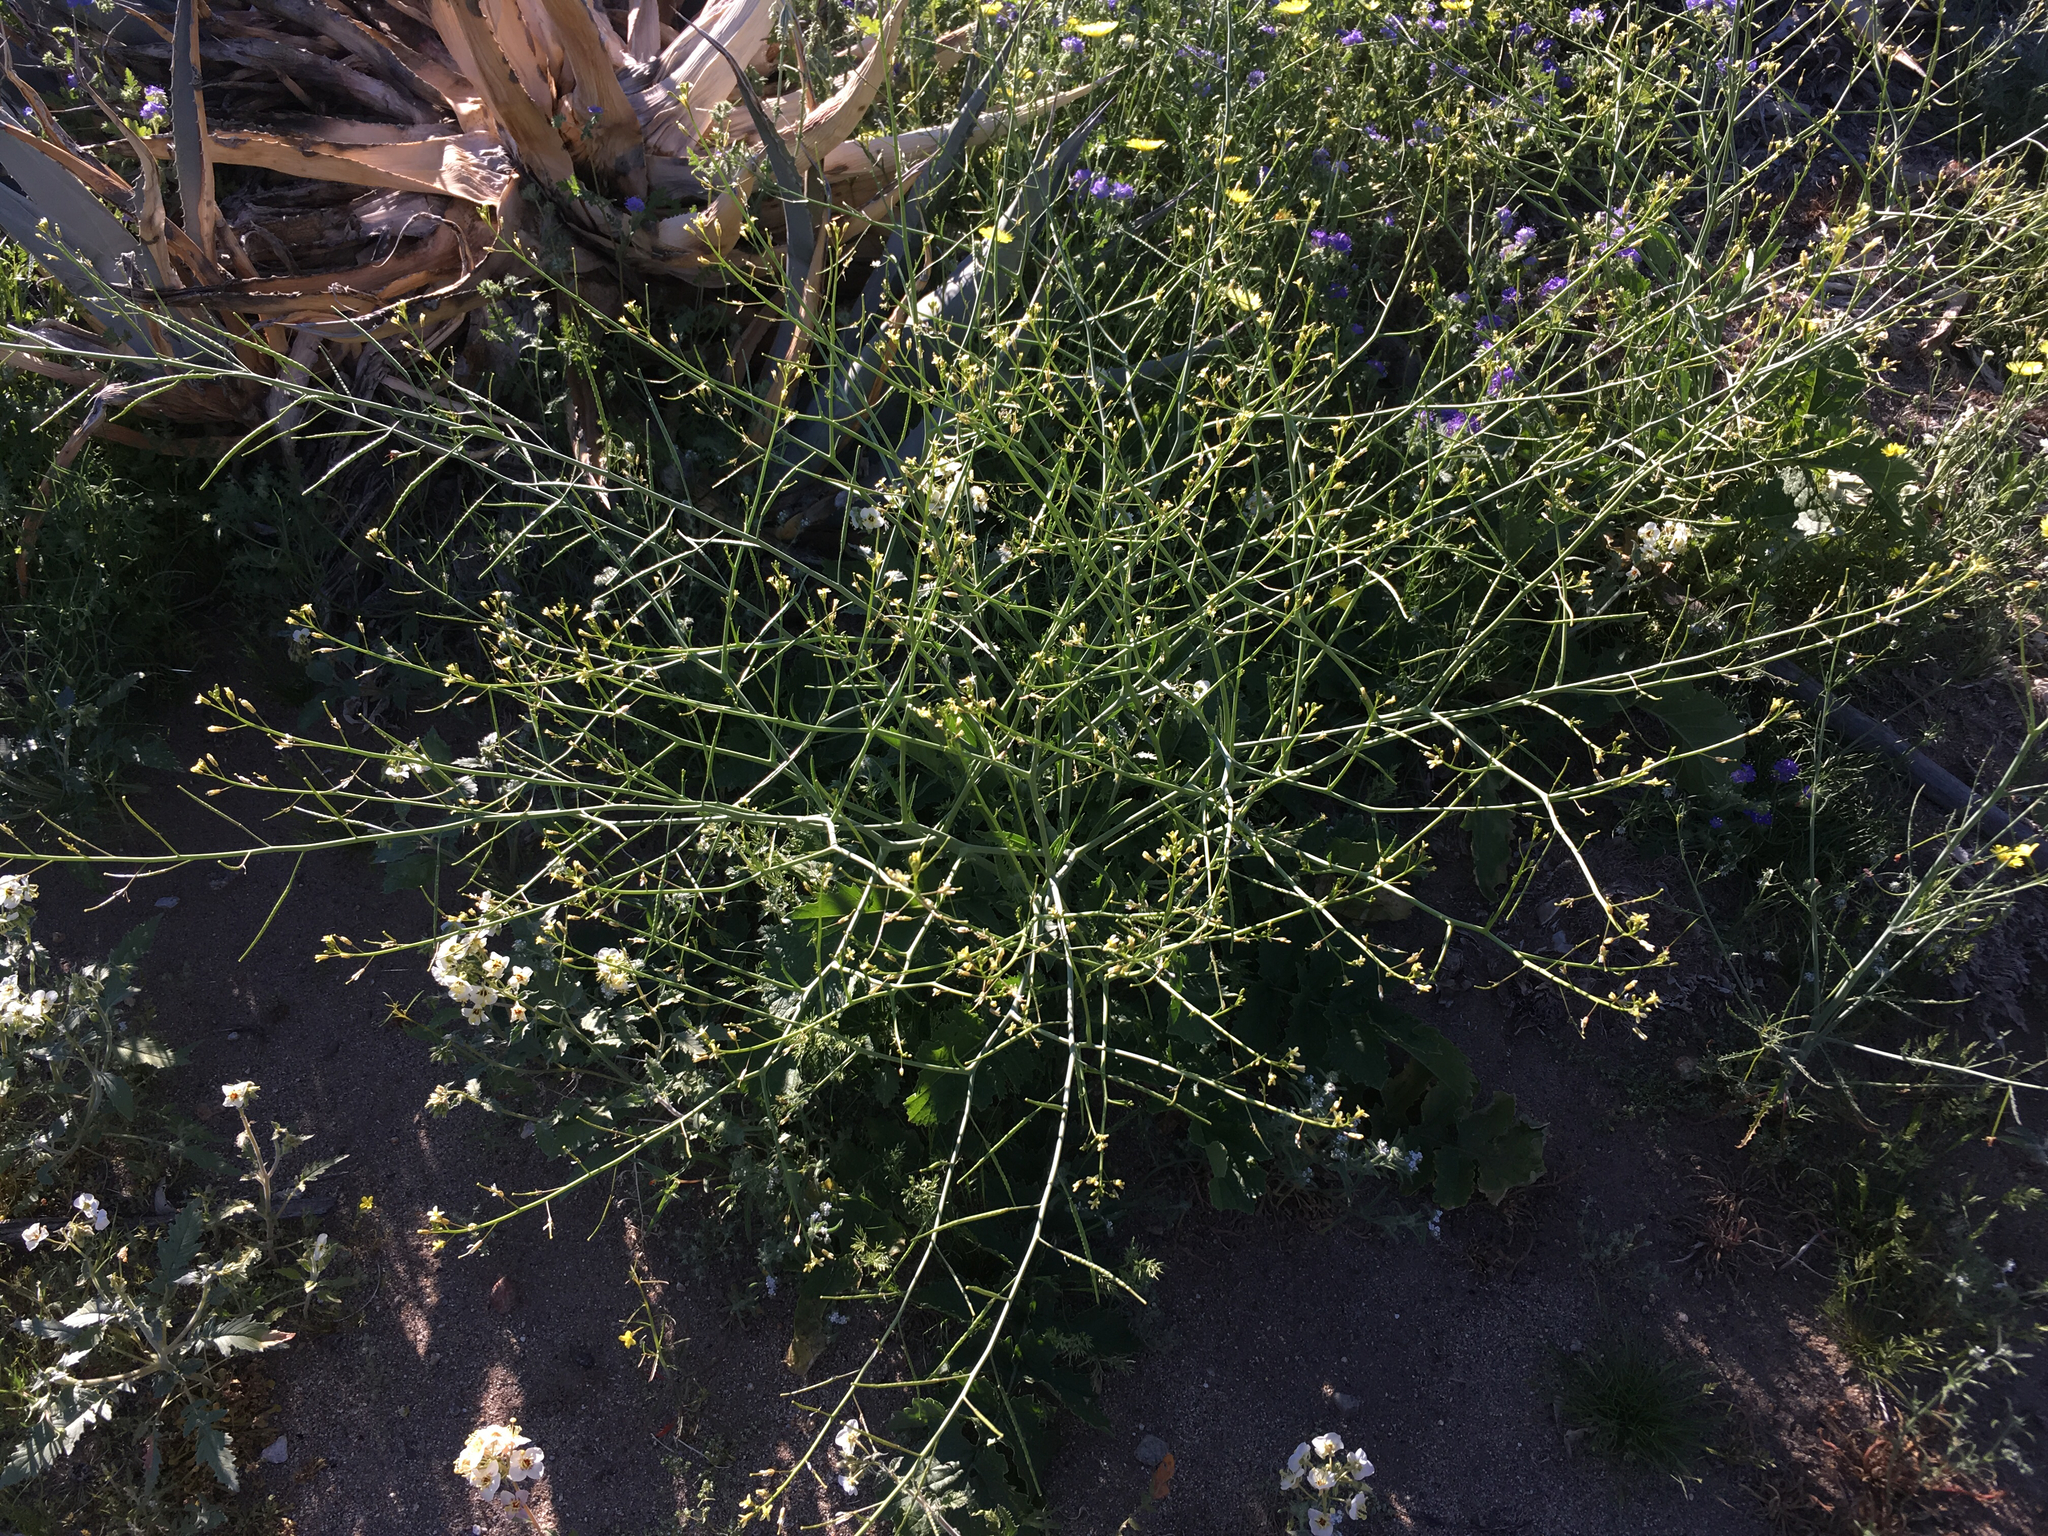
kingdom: Plantae
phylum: Tracheophyta
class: Magnoliopsida
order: Brassicales
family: Brassicaceae
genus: Brassica
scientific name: Brassica tournefortii
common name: Pale cabbage
